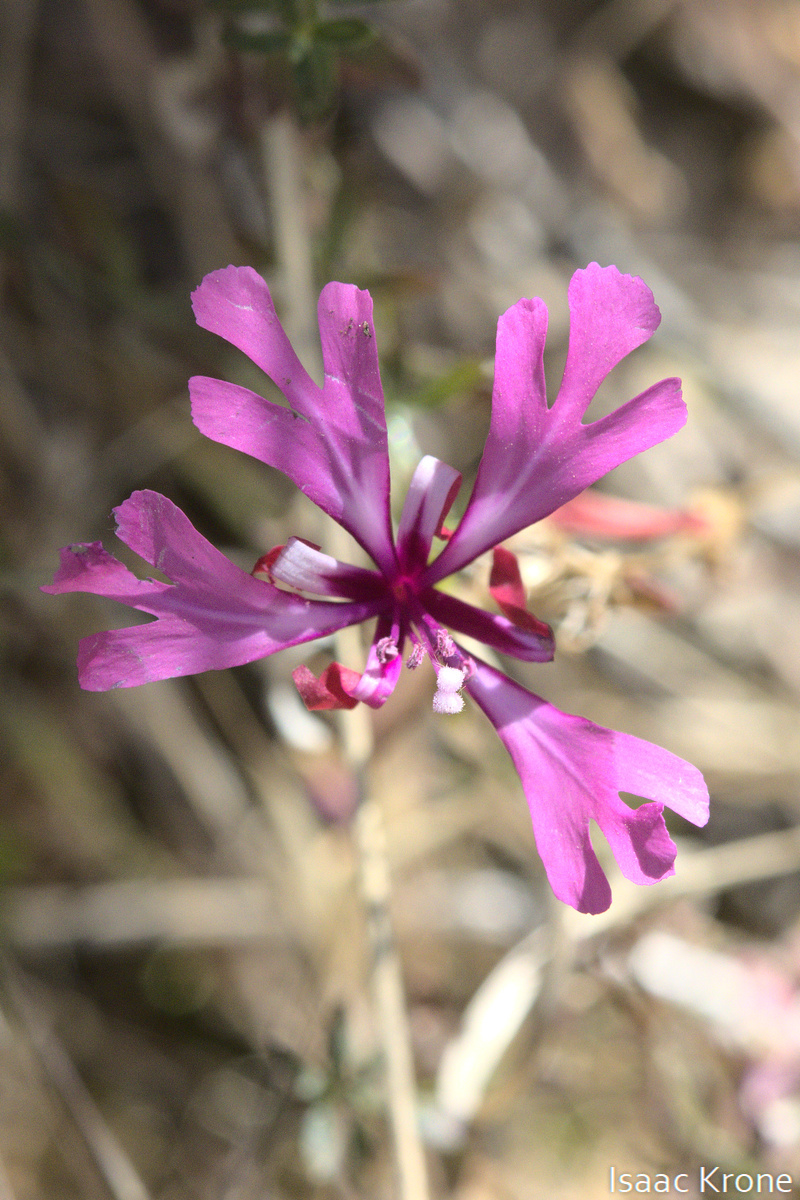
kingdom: Plantae
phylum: Tracheophyta
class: Magnoliopsida
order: Myrtales
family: Onagraceae
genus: Clarkia
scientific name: Clarkia concinna
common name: Red-ribbons
